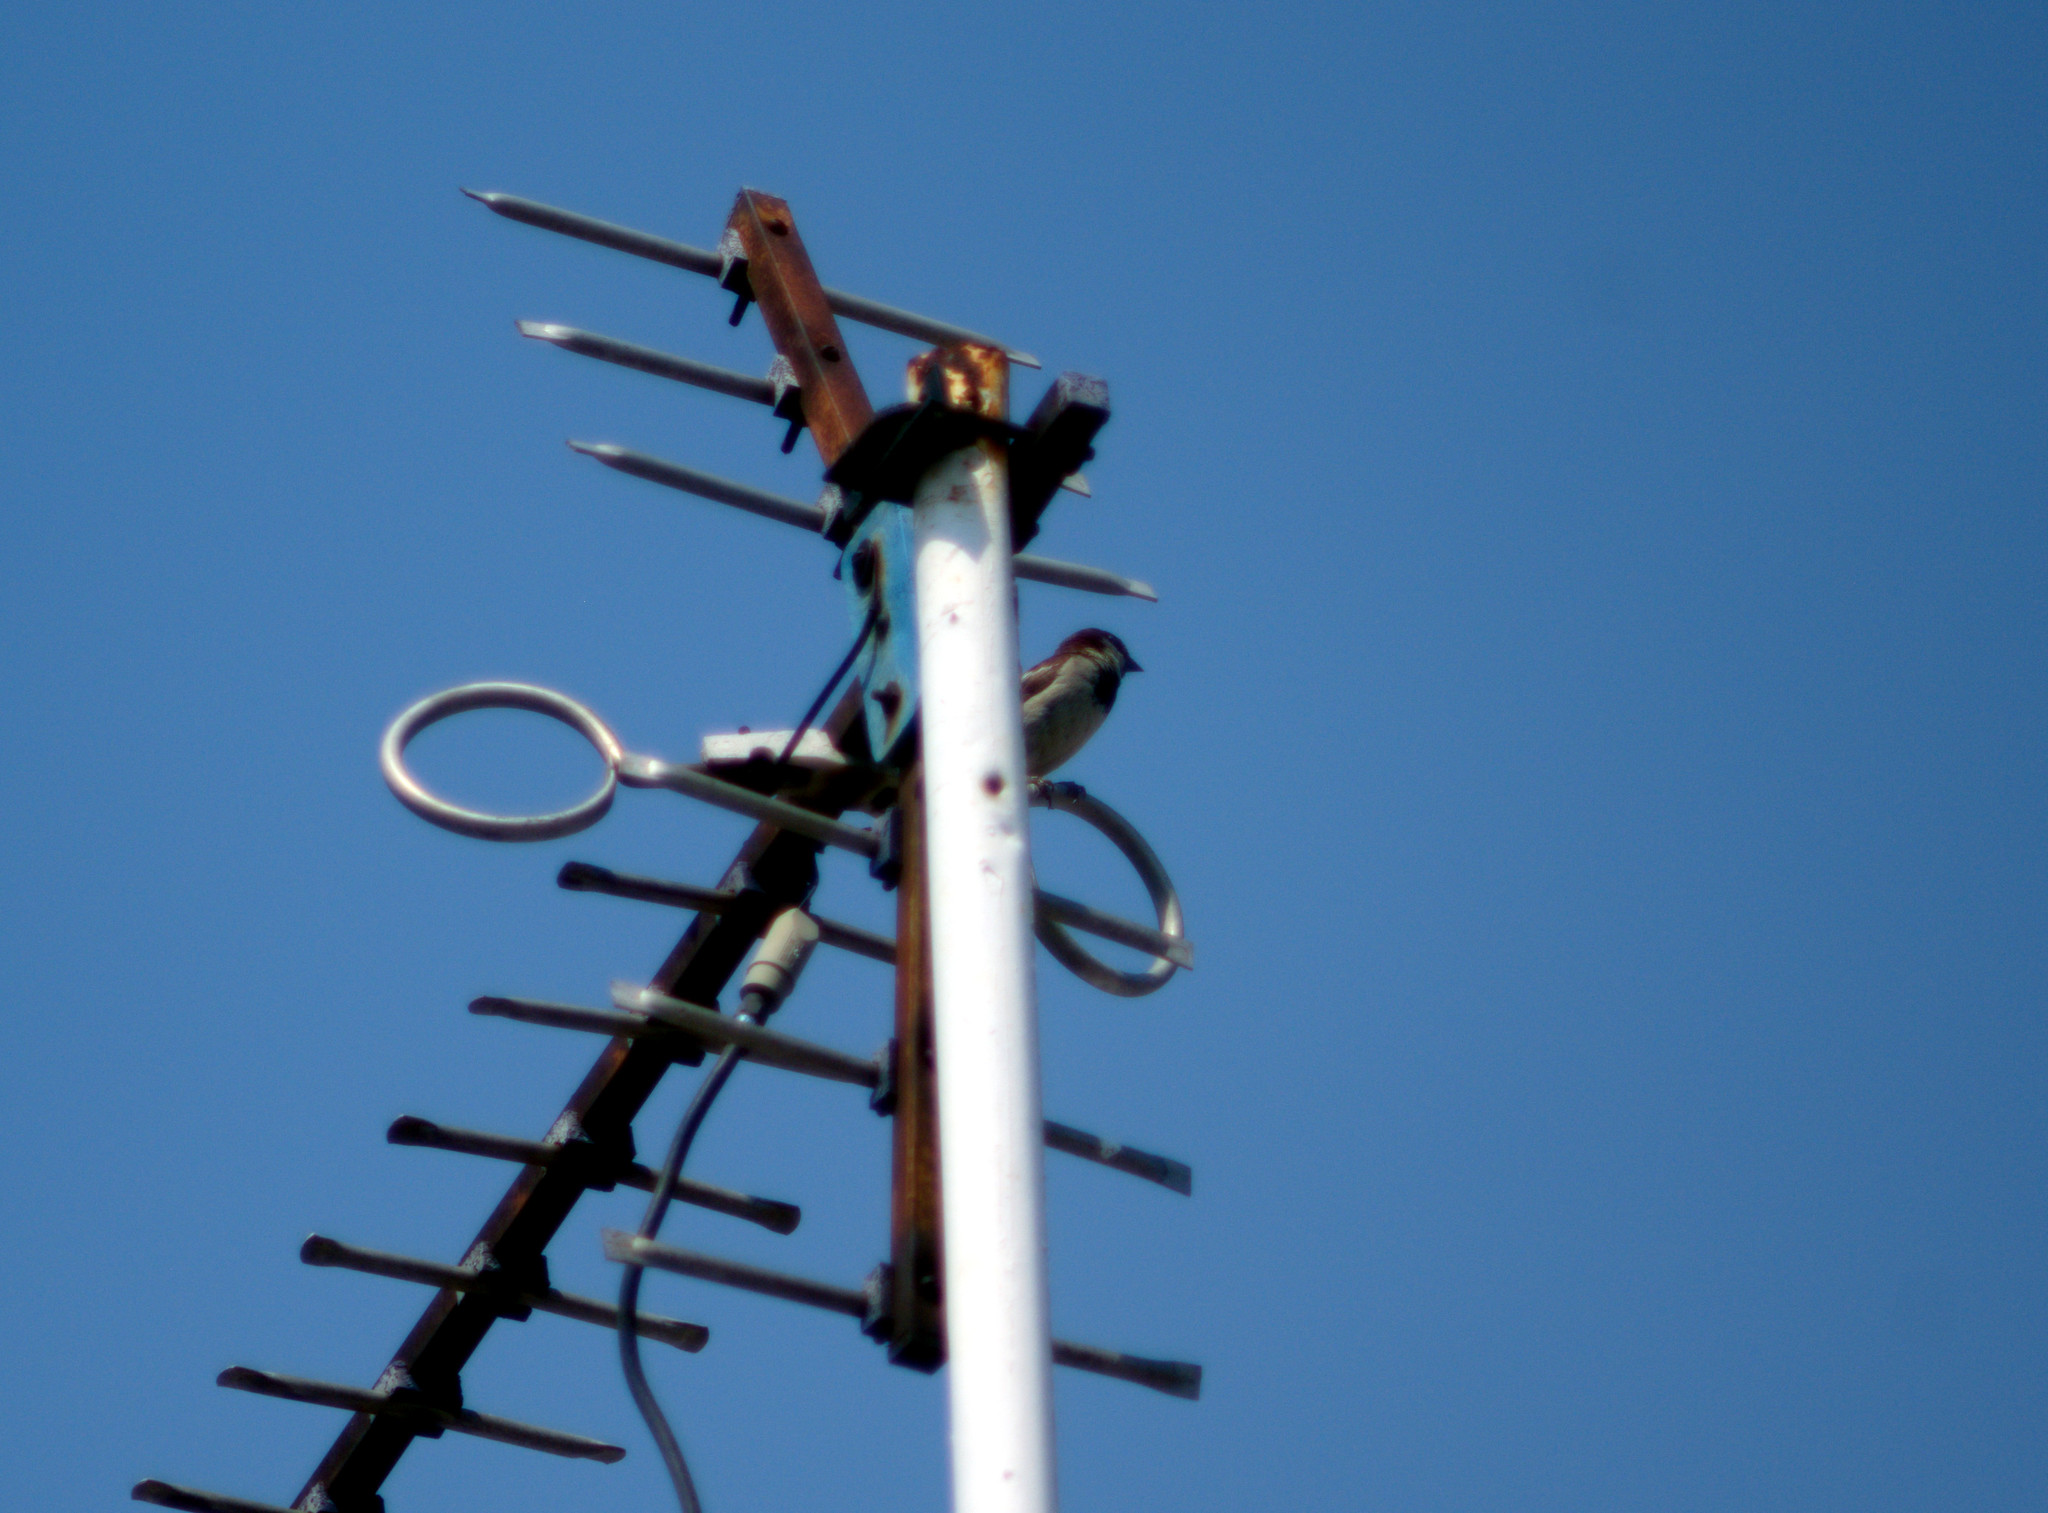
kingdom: Animalia
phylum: Chordata
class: Aves
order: Passeriformes
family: Passeridae
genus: Passer
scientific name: Passer domesticus
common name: House sparrow
